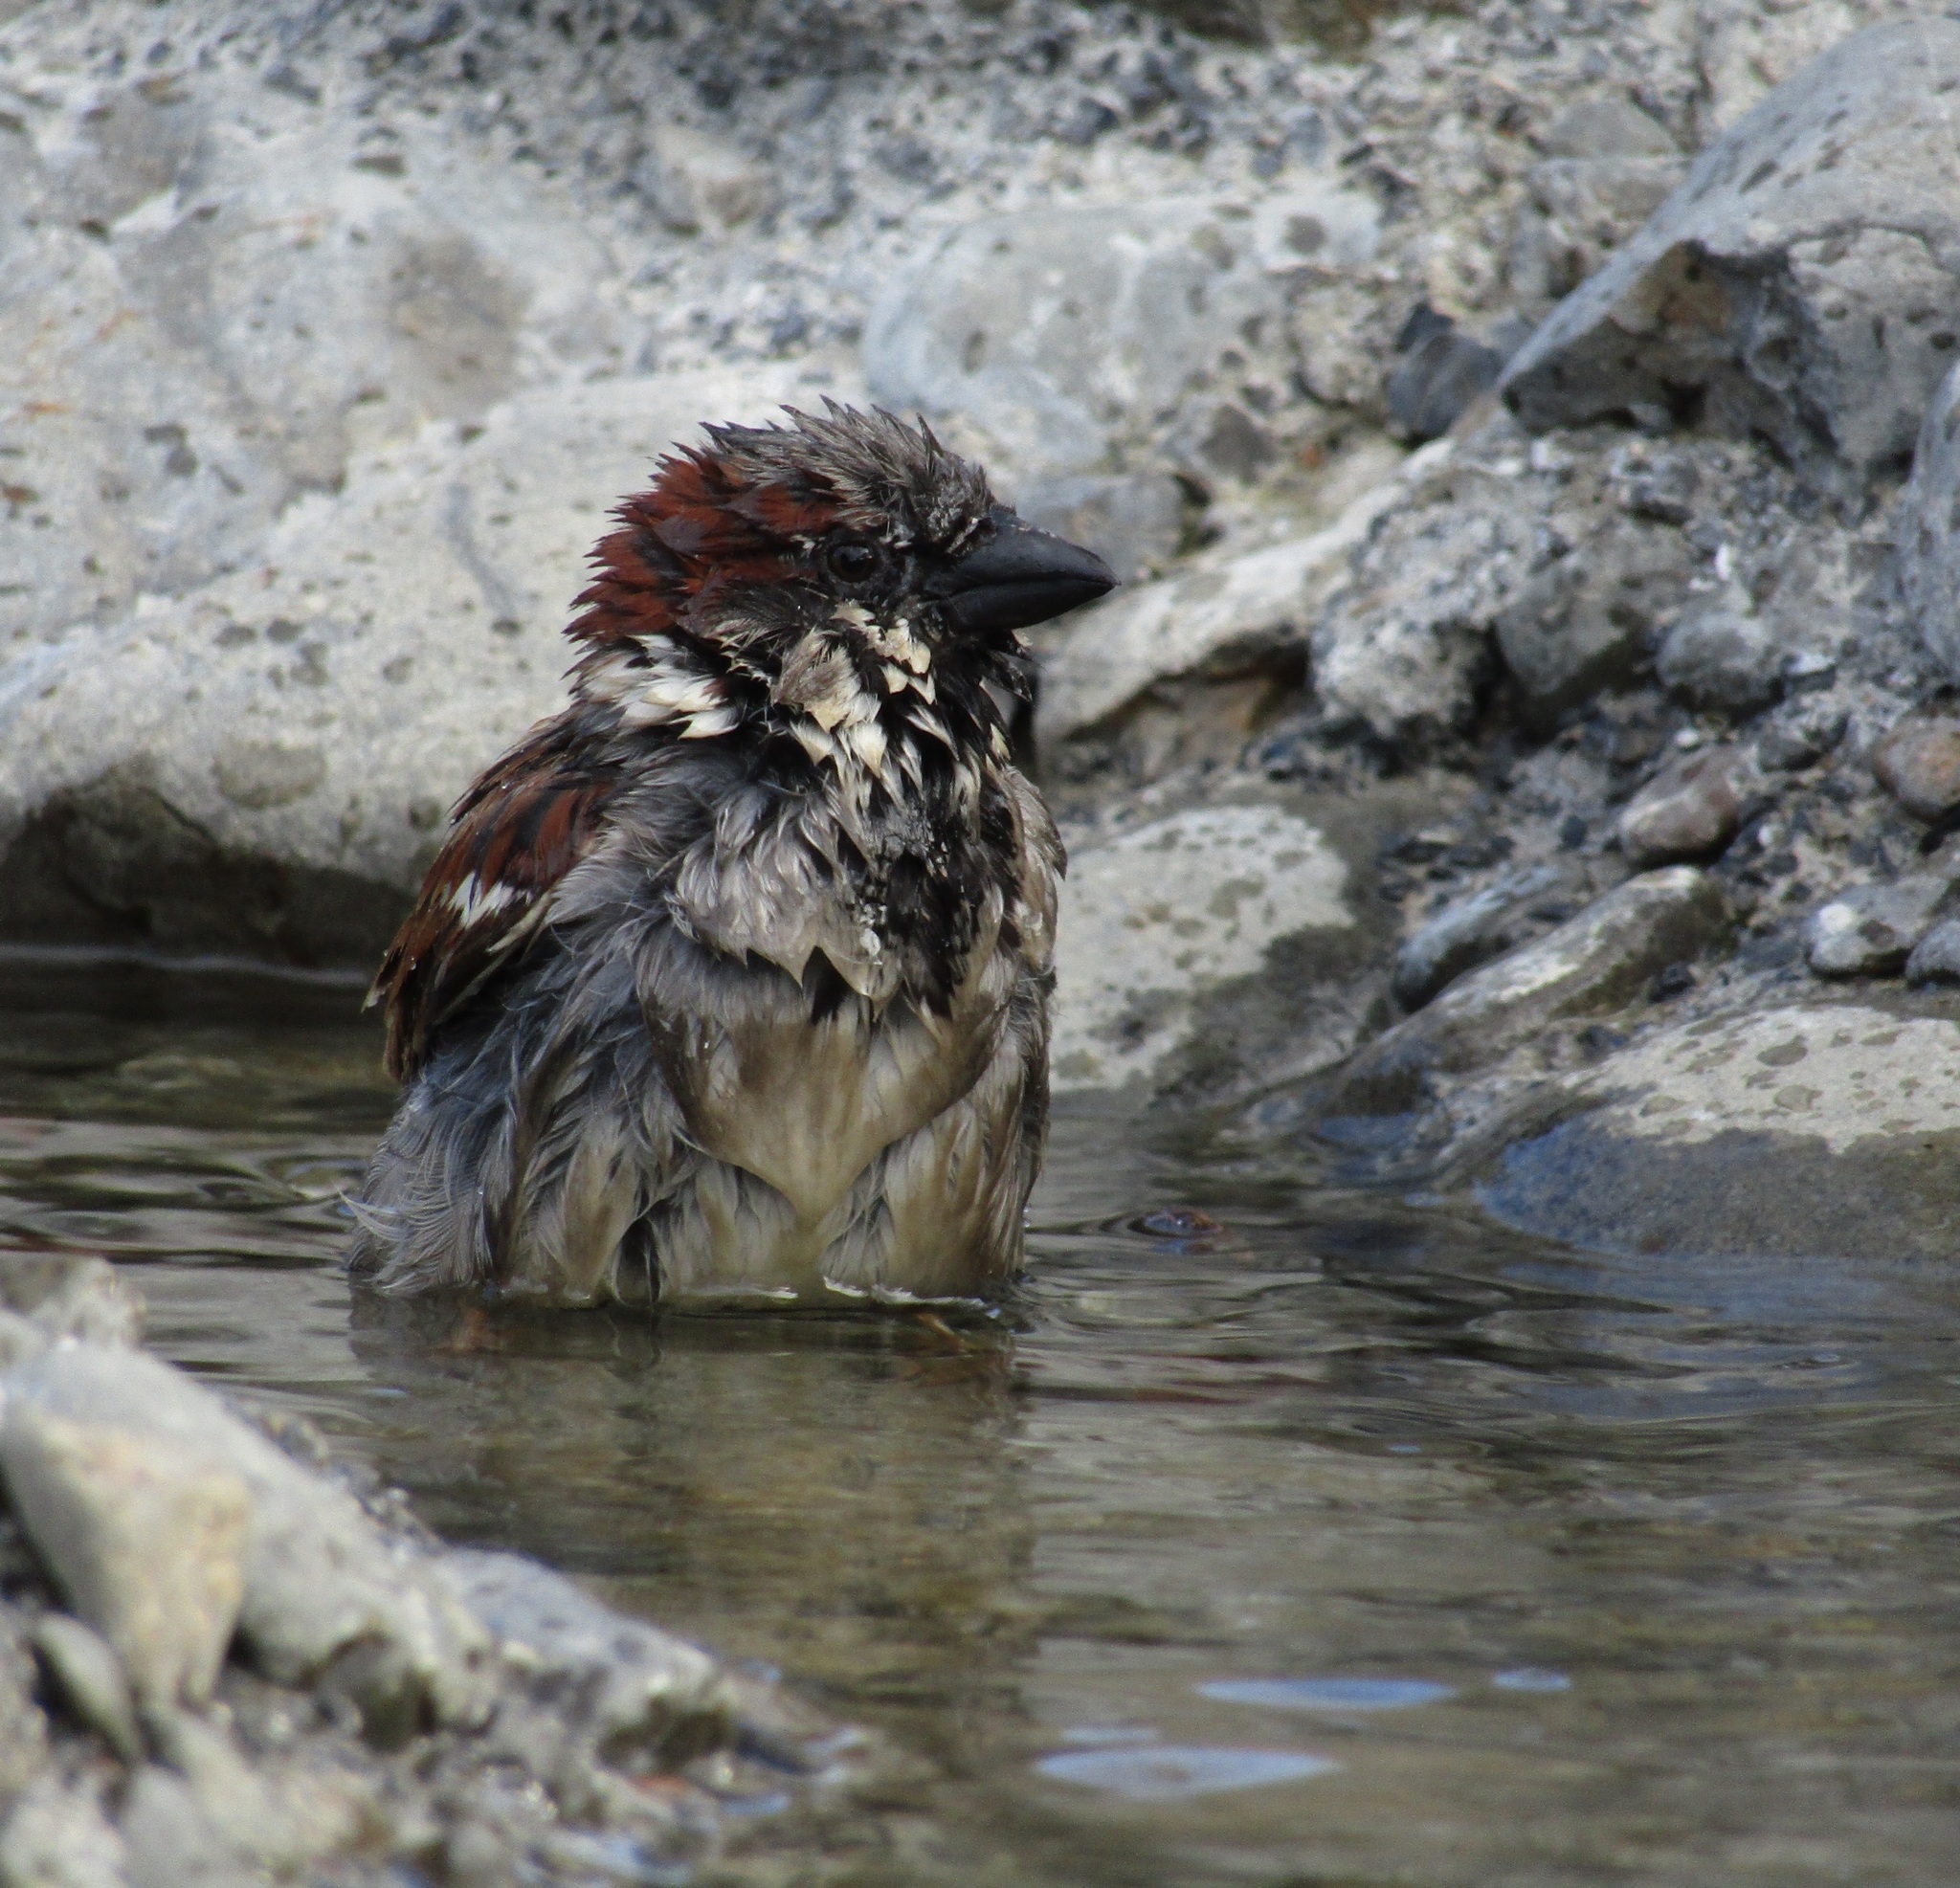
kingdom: Animalia
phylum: Chordata
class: Aves
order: Passeriformes
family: Passeridae
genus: Passer
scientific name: Passer domesticus
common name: House sparrow
